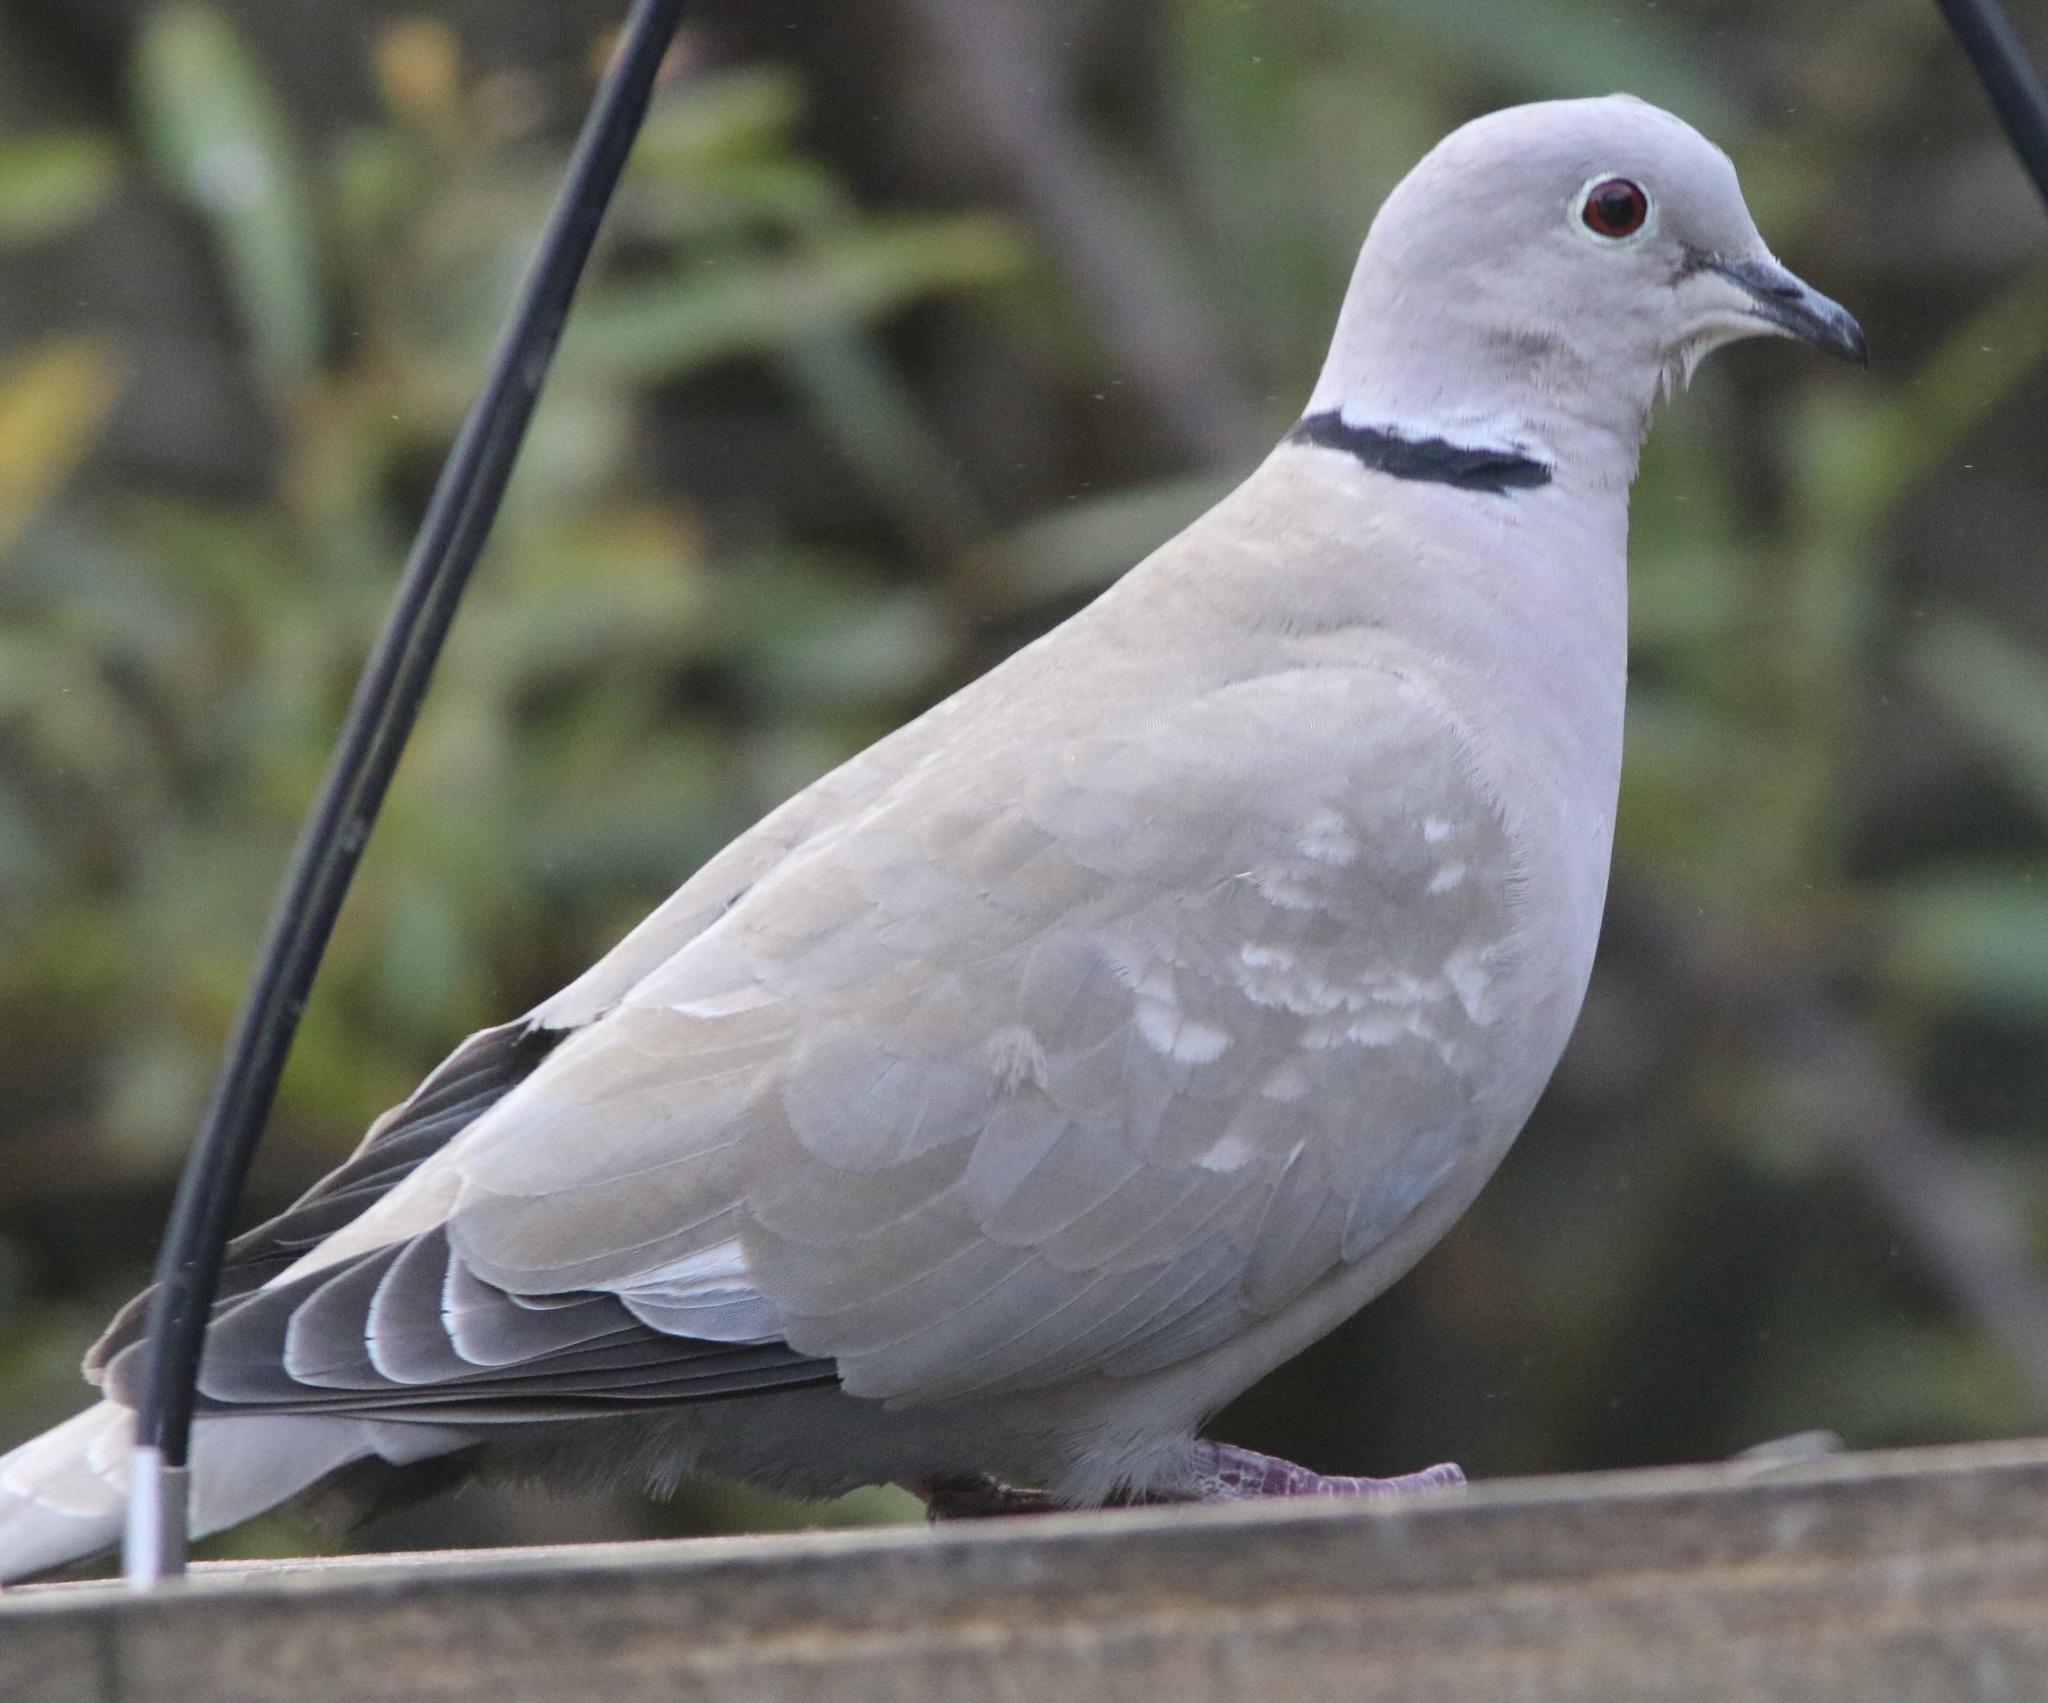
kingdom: Animalia
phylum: Chordata
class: Aves
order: Columbiformes
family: Columbidae
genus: Streptopelia
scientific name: Streptopelia decaocto
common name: Eurasian collared dove
